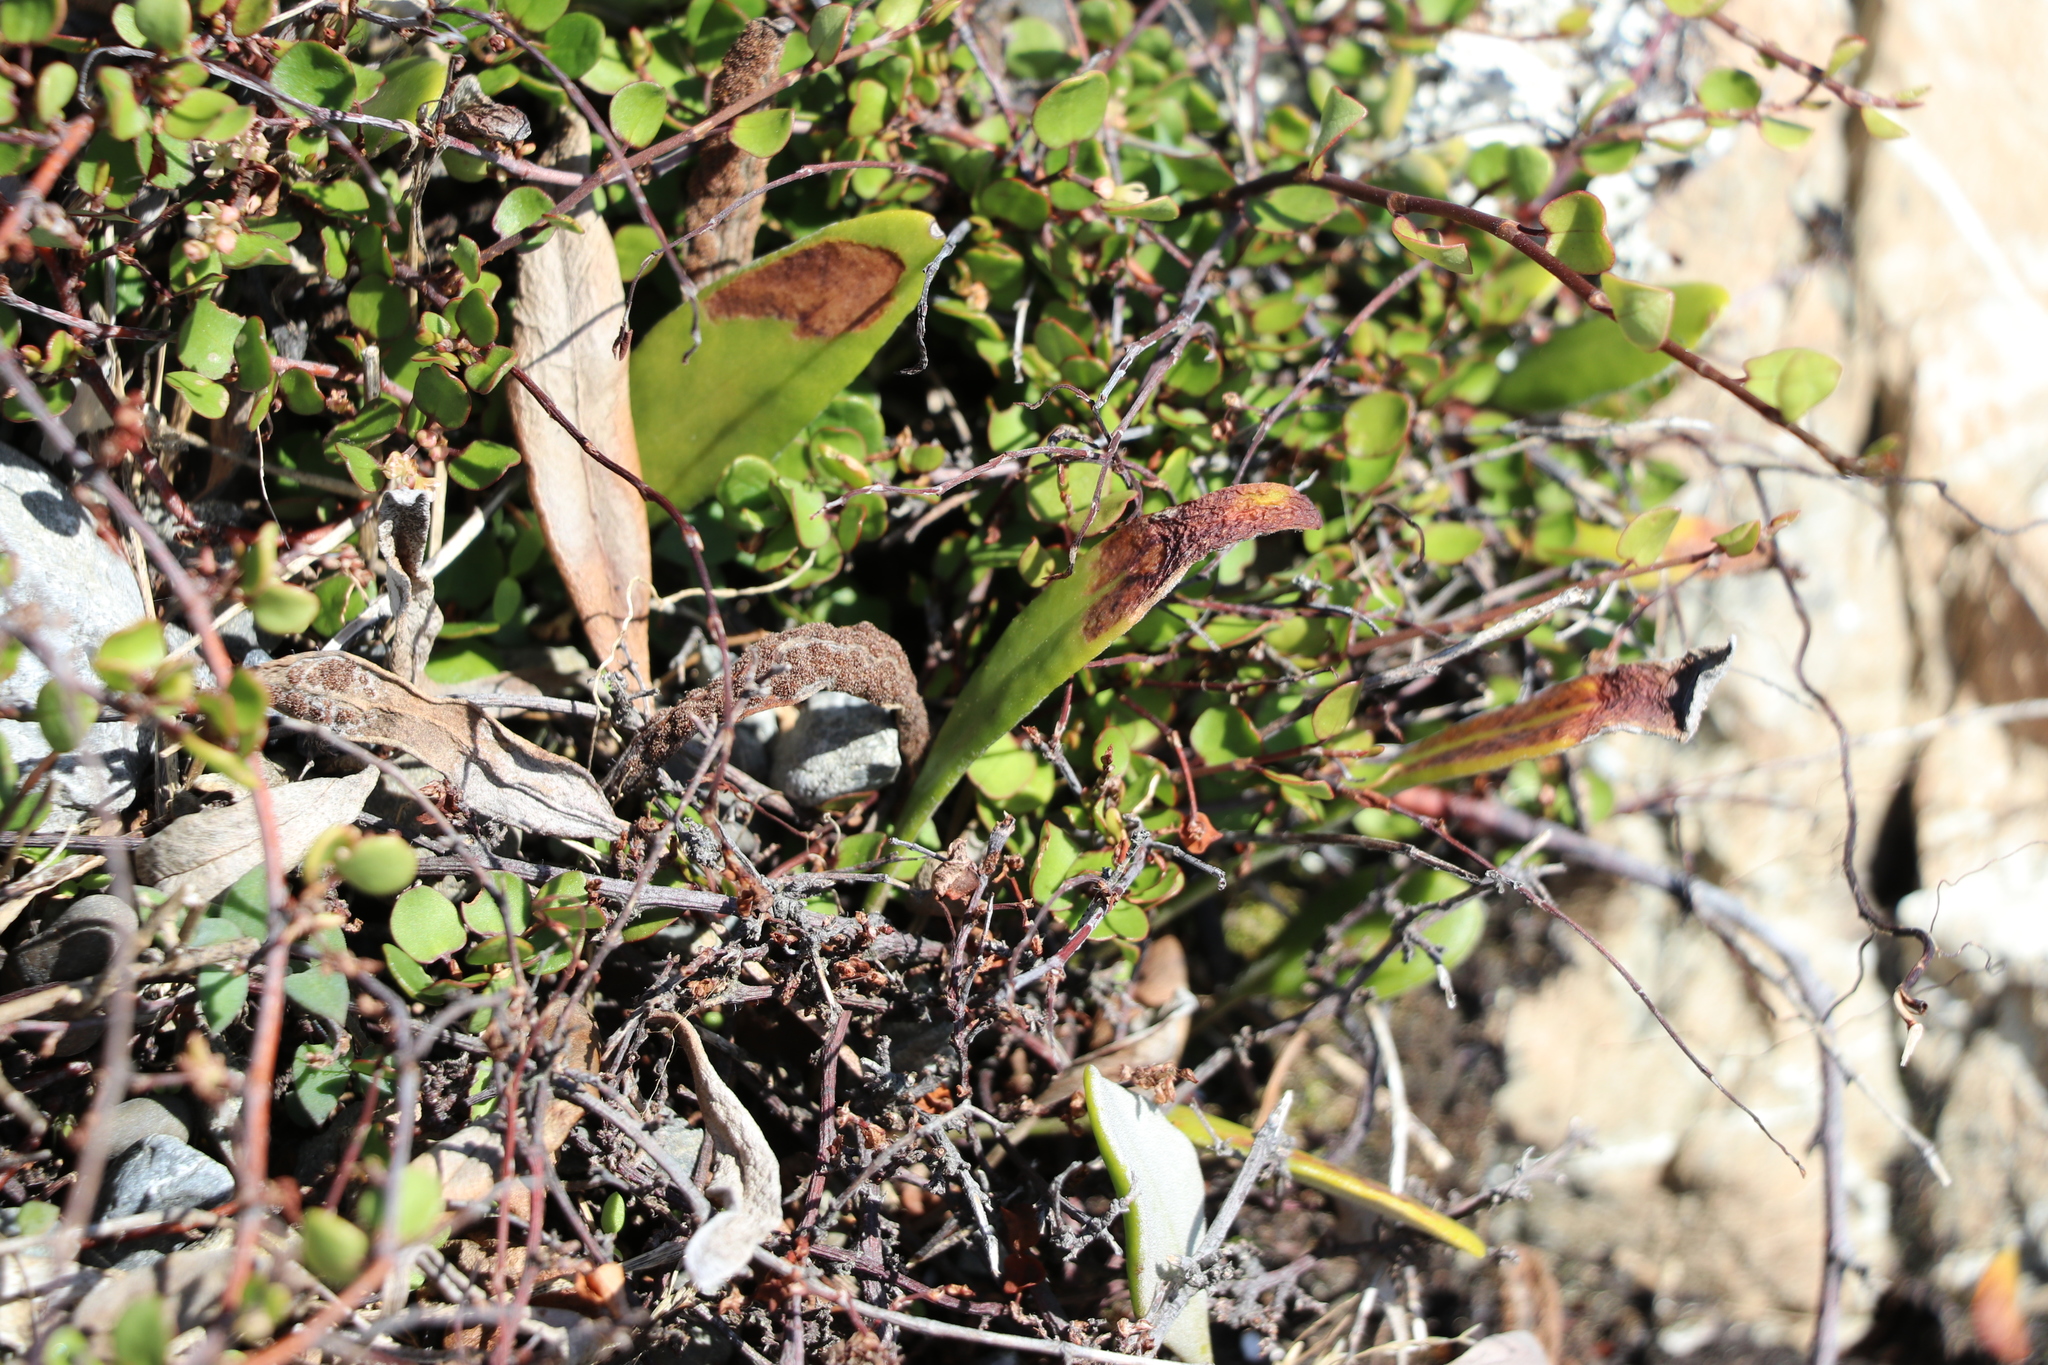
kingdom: Plantae
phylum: Tracheophyta
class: Polypodiopsida
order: Polypodiales
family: Polypodiaceae
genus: Pyrrosia
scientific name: Pyrrosia eleagnifolia
